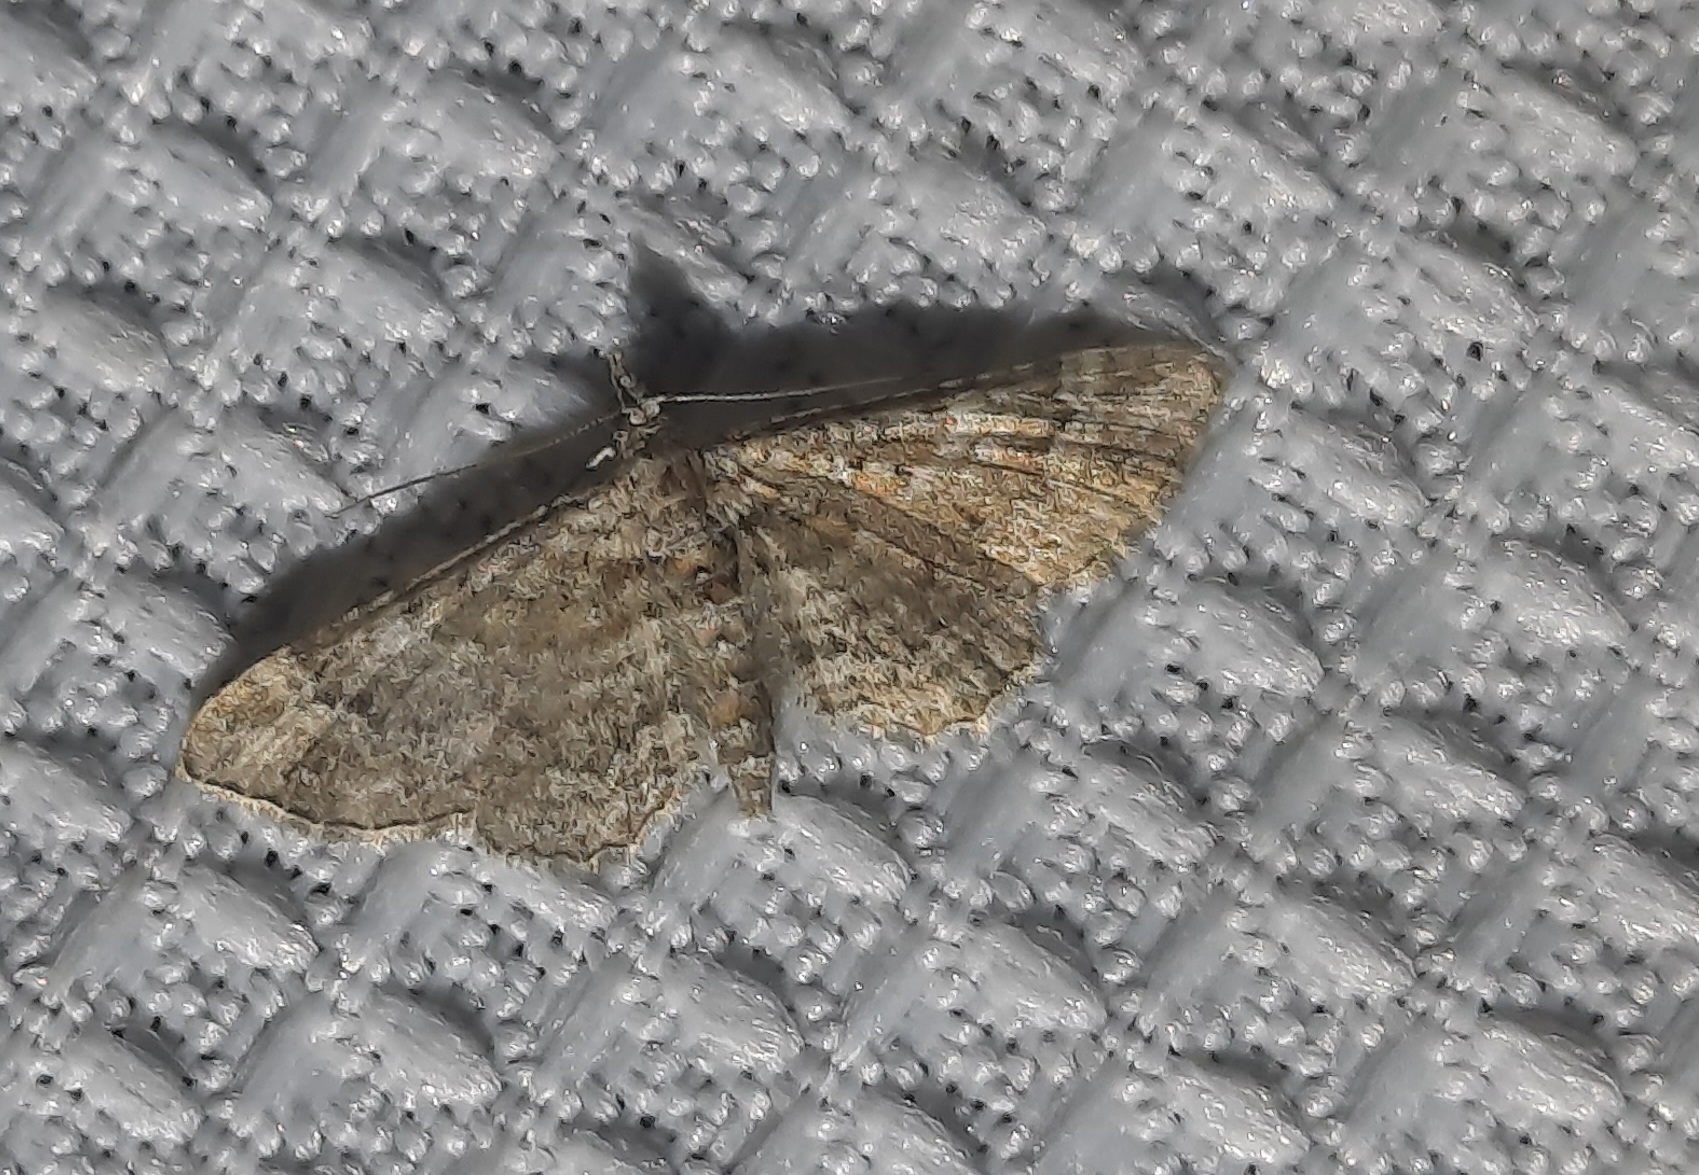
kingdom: Animalia
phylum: Arthropoda
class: Insecta
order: Lepidoptera
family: Geometridae
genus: Gymnoscelis
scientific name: Gymnoscelis rufifasciata
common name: Double-striped pug
